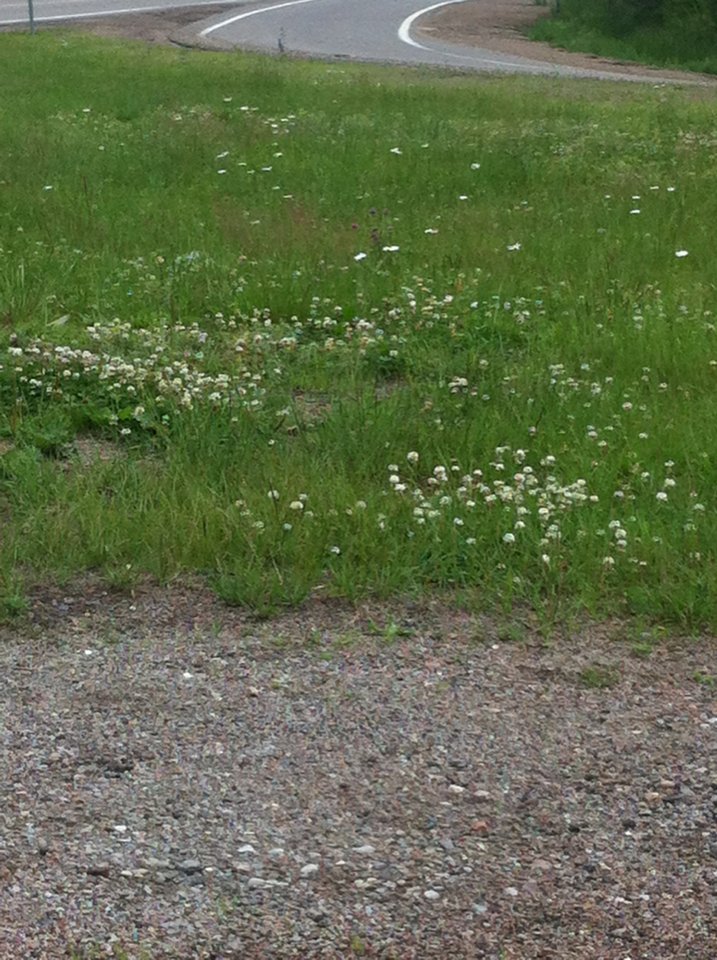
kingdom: Plantae
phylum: Tracheophyta
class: Magnoliopsida
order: Fabales
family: Fabaceae
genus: Trifolium
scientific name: Trifolium repens
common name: White clover
